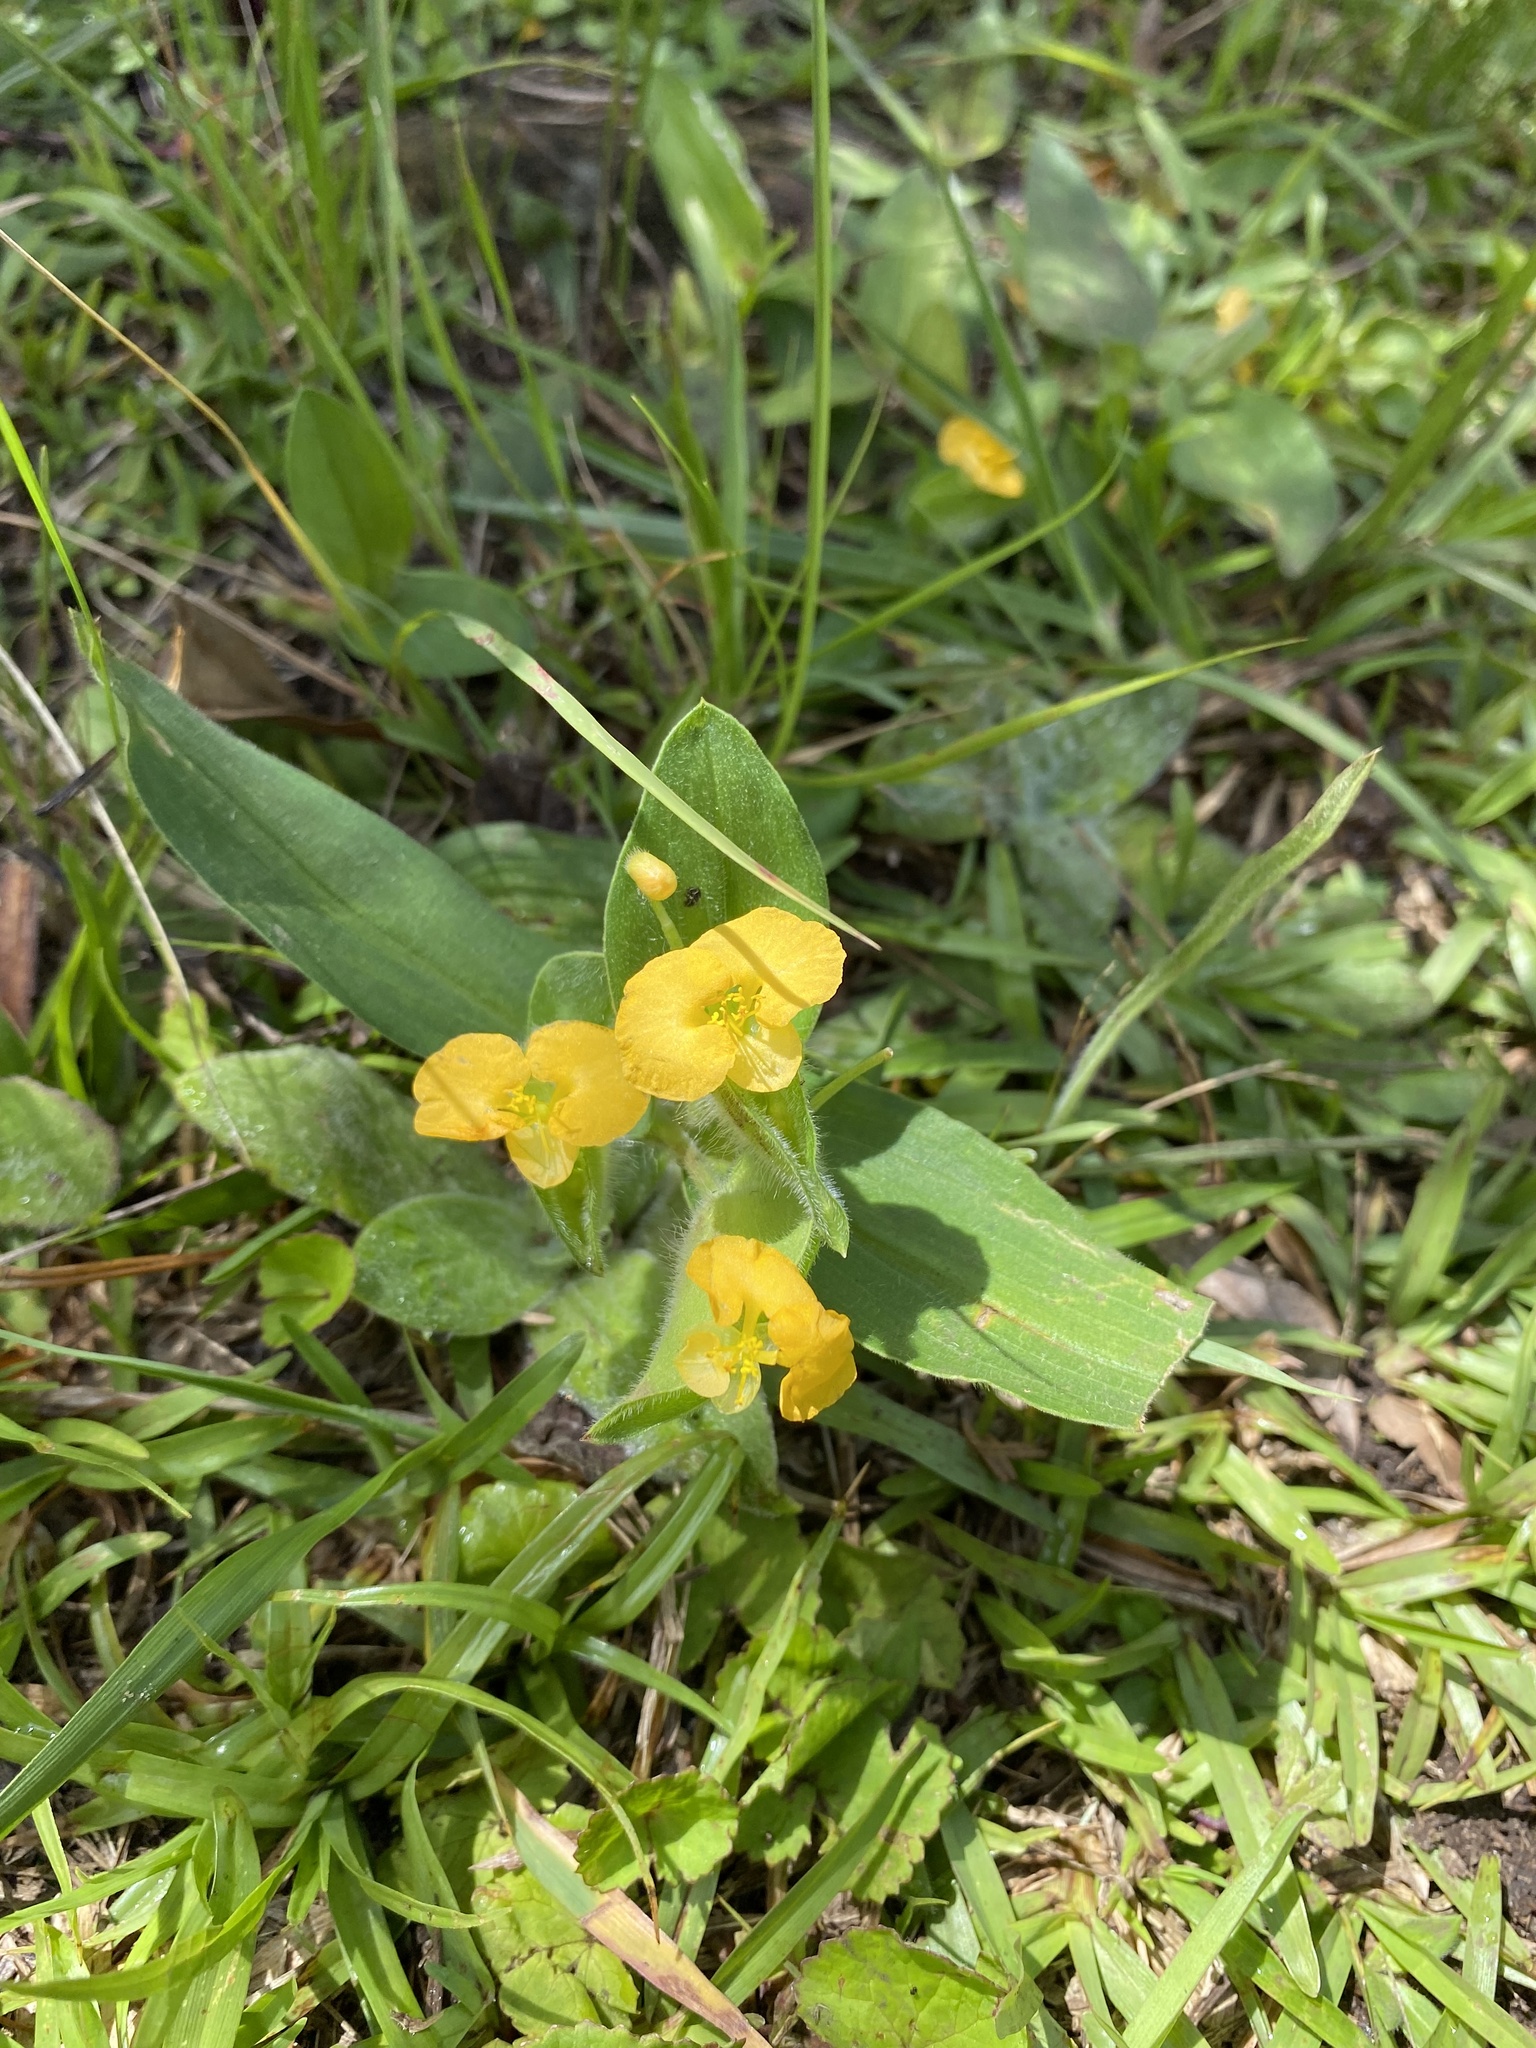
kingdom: Plantae
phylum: Tracheophyta
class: Liliopsida
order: Commelinales
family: Commelinaceae
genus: Commelina
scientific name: Commelina africana
